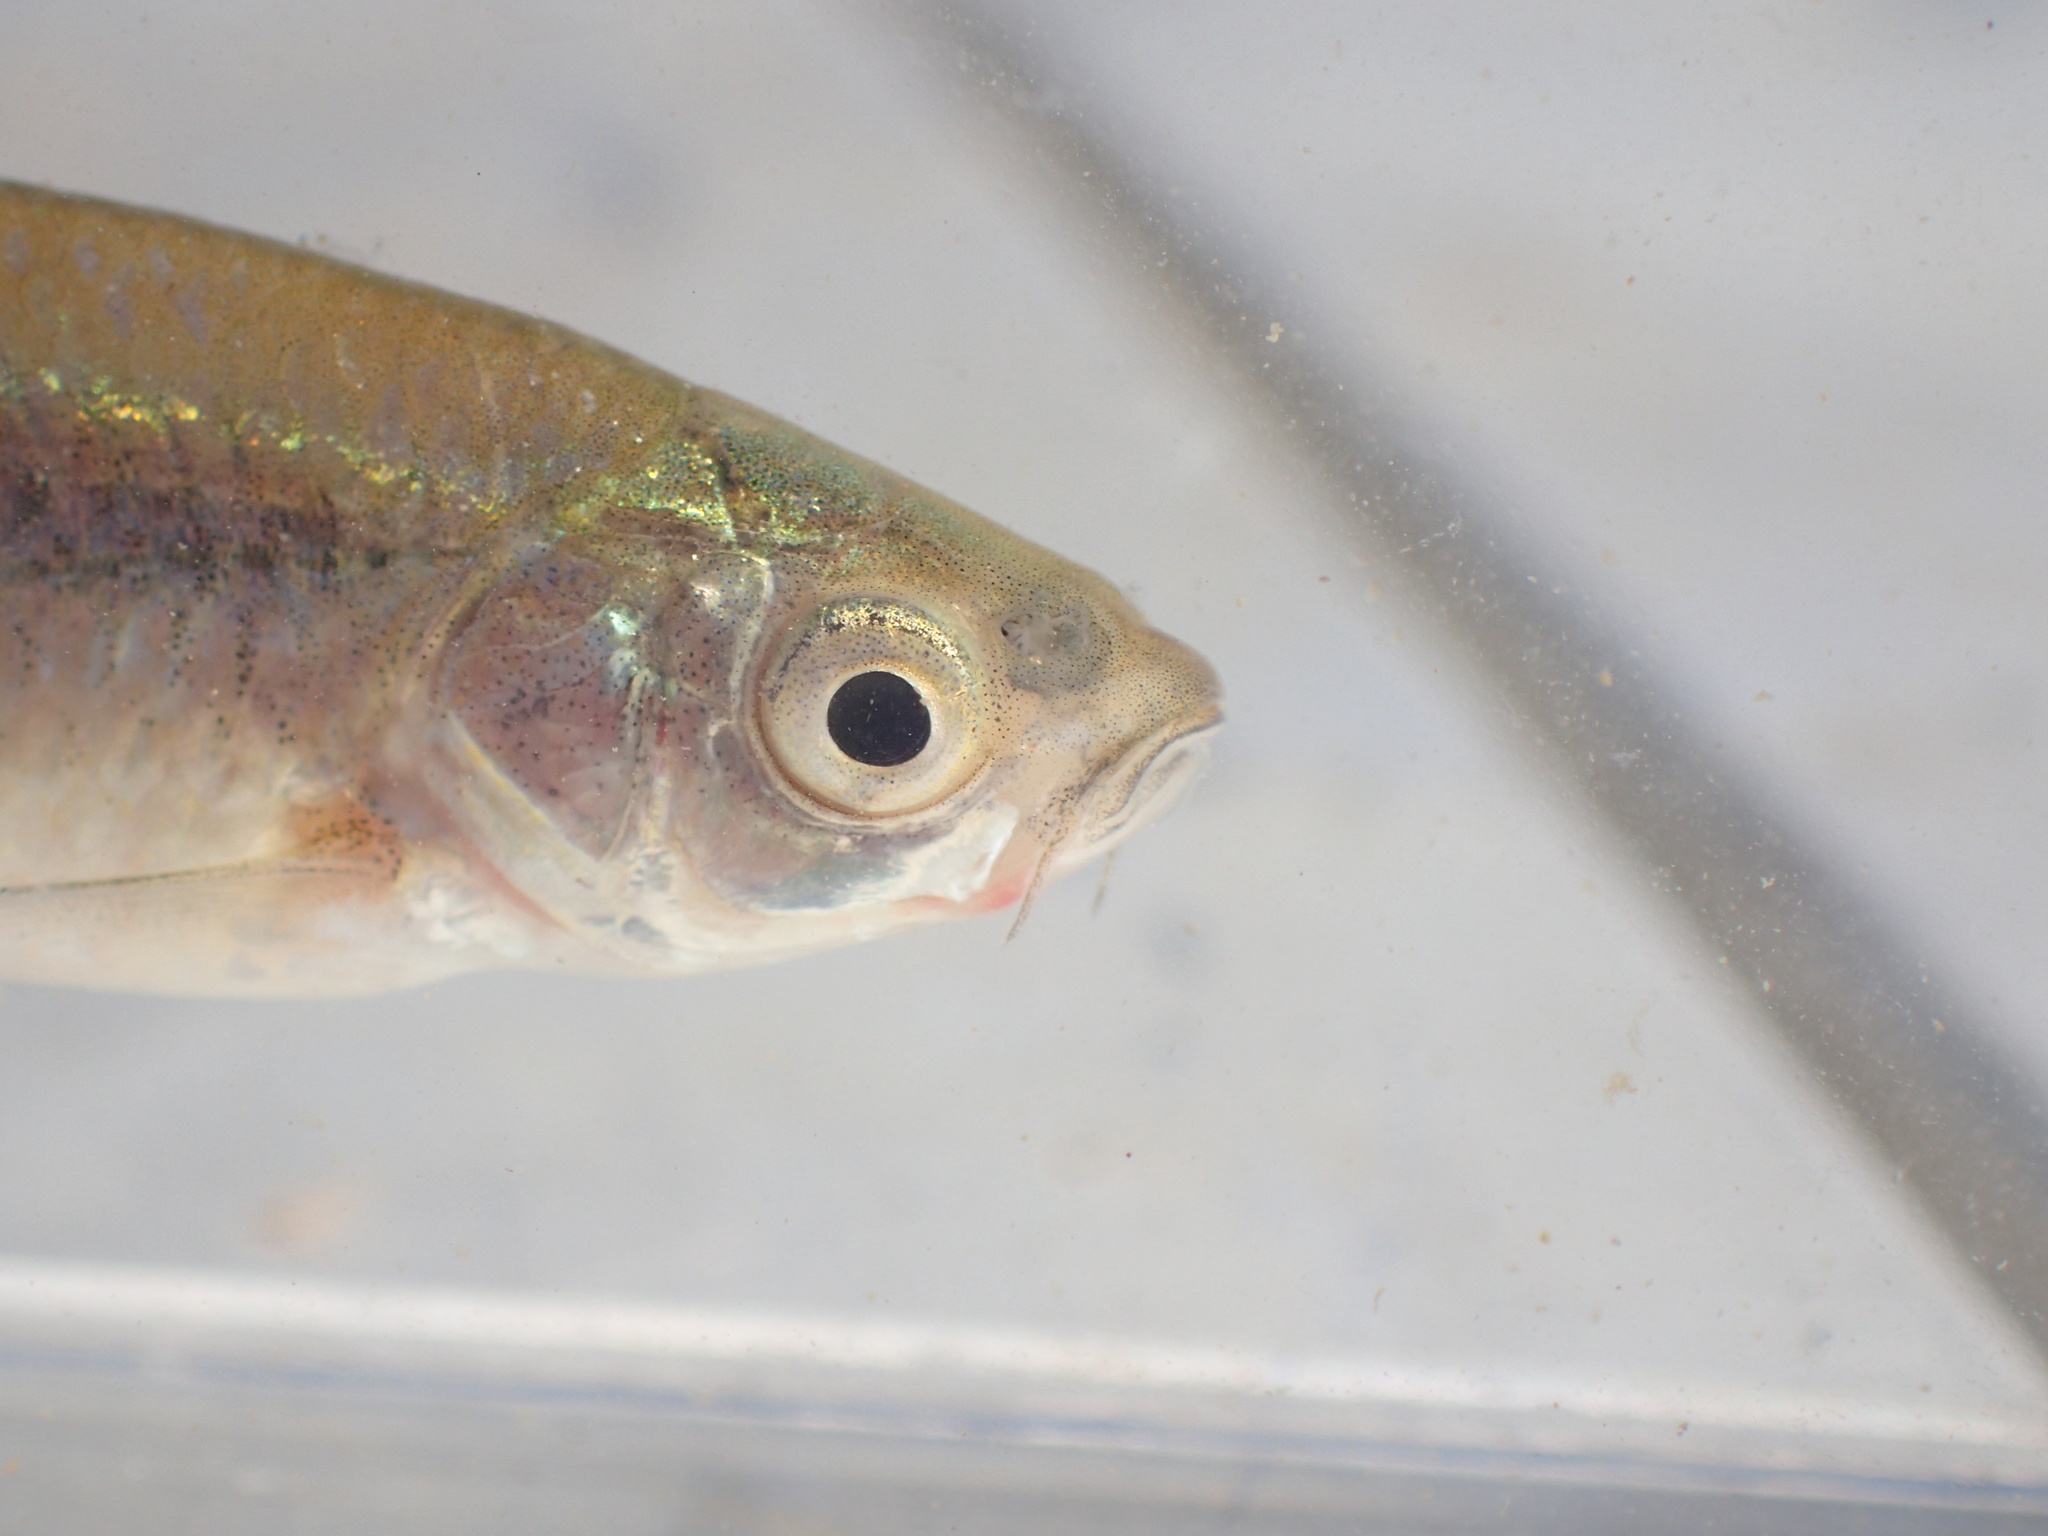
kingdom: Animalia
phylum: Chordata
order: Cypriniformes
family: Cyprinidae
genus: Pseudobarbus
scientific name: Pseudobarbus hospes
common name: Namaquab barb
